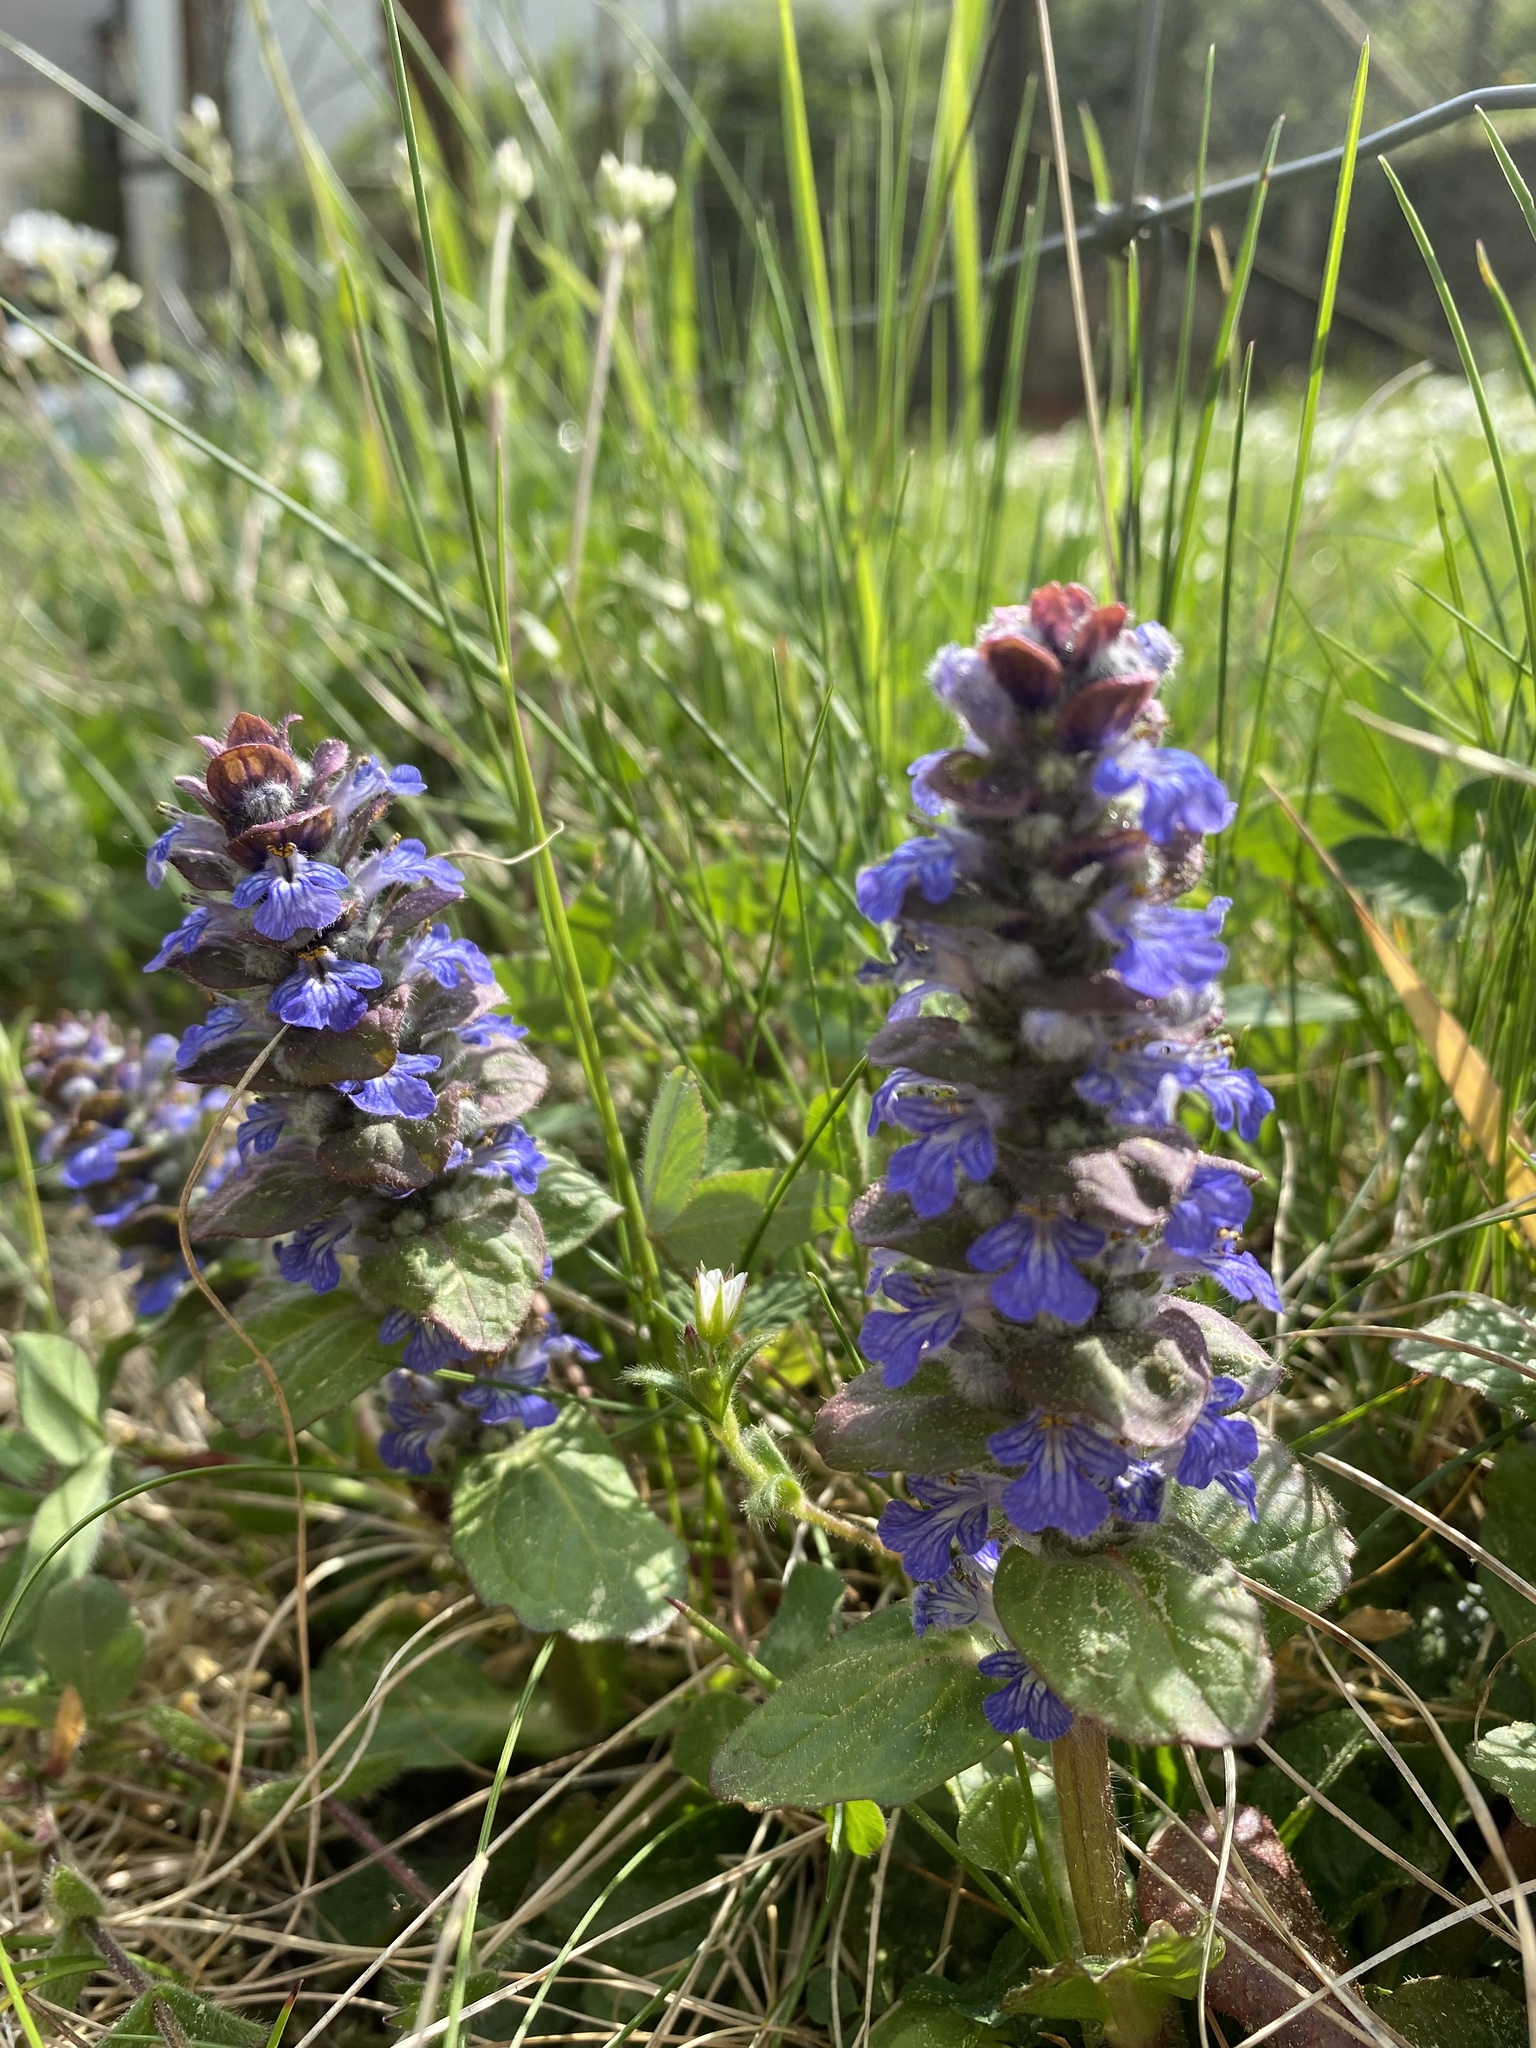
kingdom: Plantae
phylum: Tracheophyta
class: Magnoliopsida
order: Lamiales
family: Lamiaceae
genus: Ajuga
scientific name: Ajuga reptans
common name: Bugle
